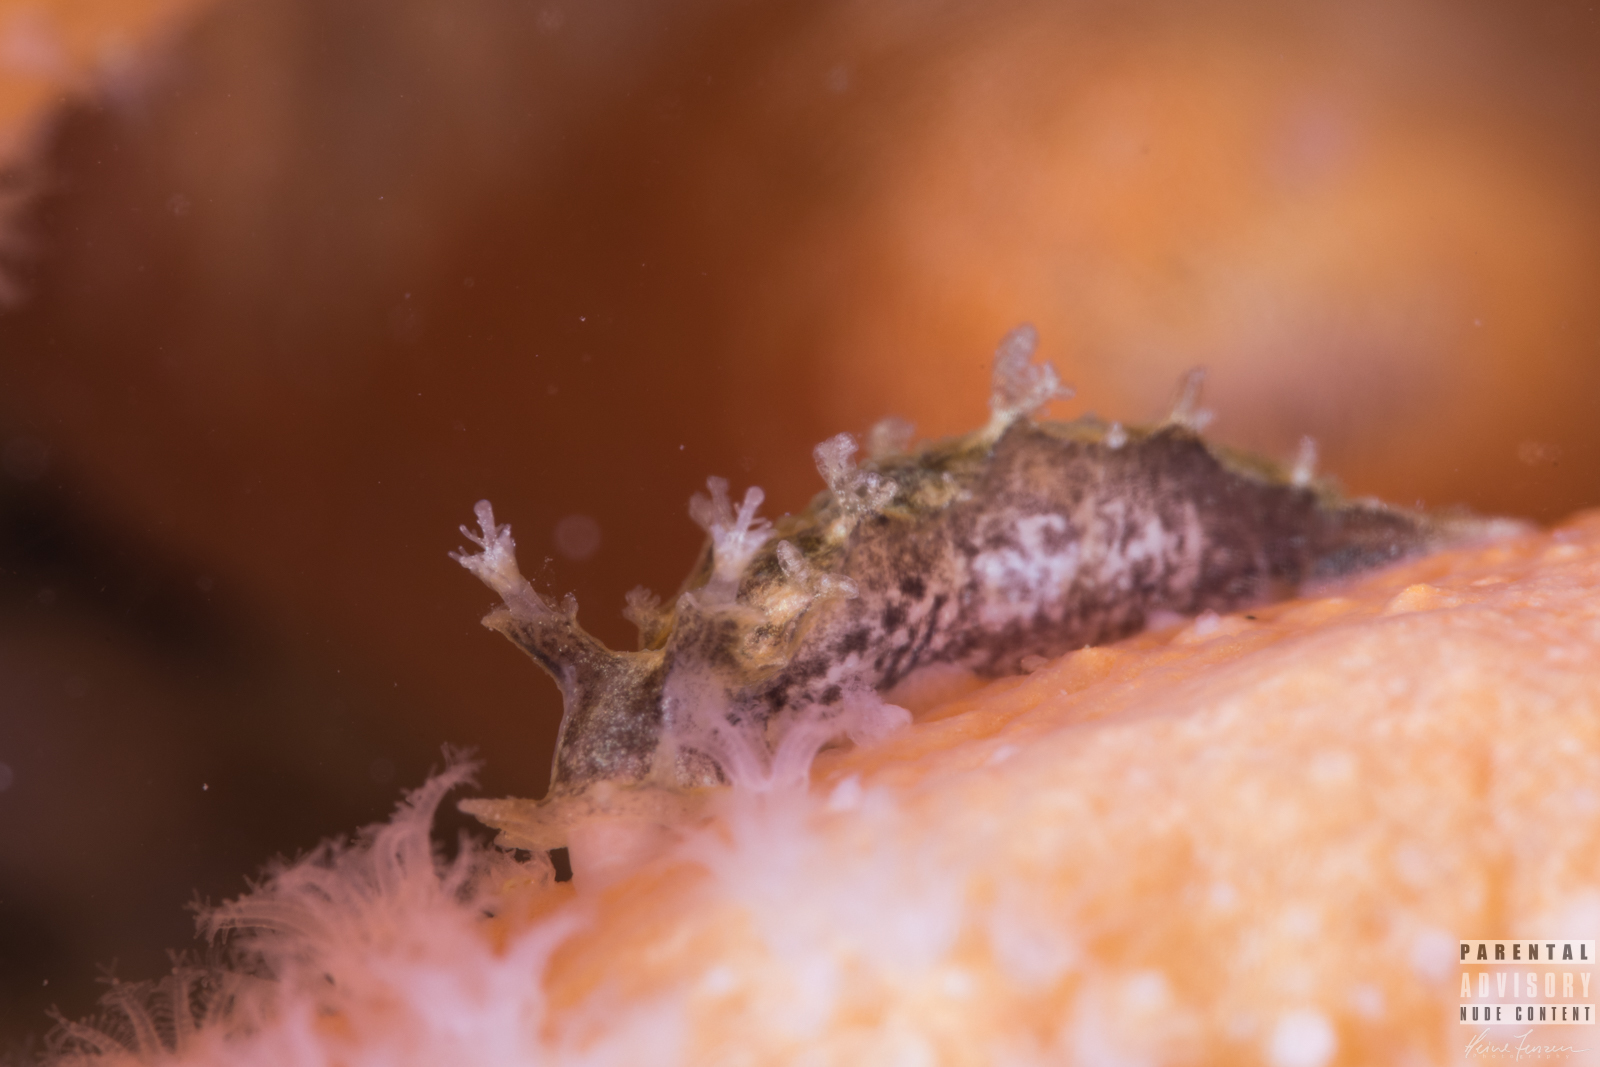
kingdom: Animalia
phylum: Mollusca
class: Gastropoda
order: Nudibranchia
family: Tritoniidae
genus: Duvaucelia
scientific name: Duvaucelia plebeia
